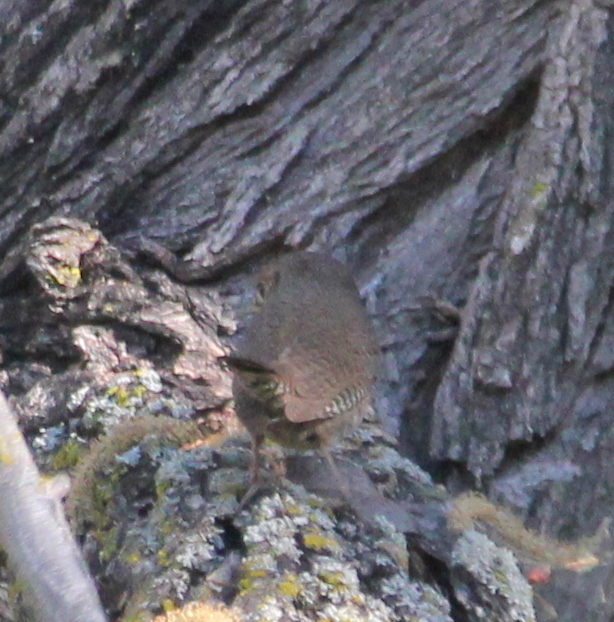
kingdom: Animalia
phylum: Chordata
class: Aves
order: Passeriformes
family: Troglodytidae
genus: Troglodytes
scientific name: Troglodytes aedon
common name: House wren
